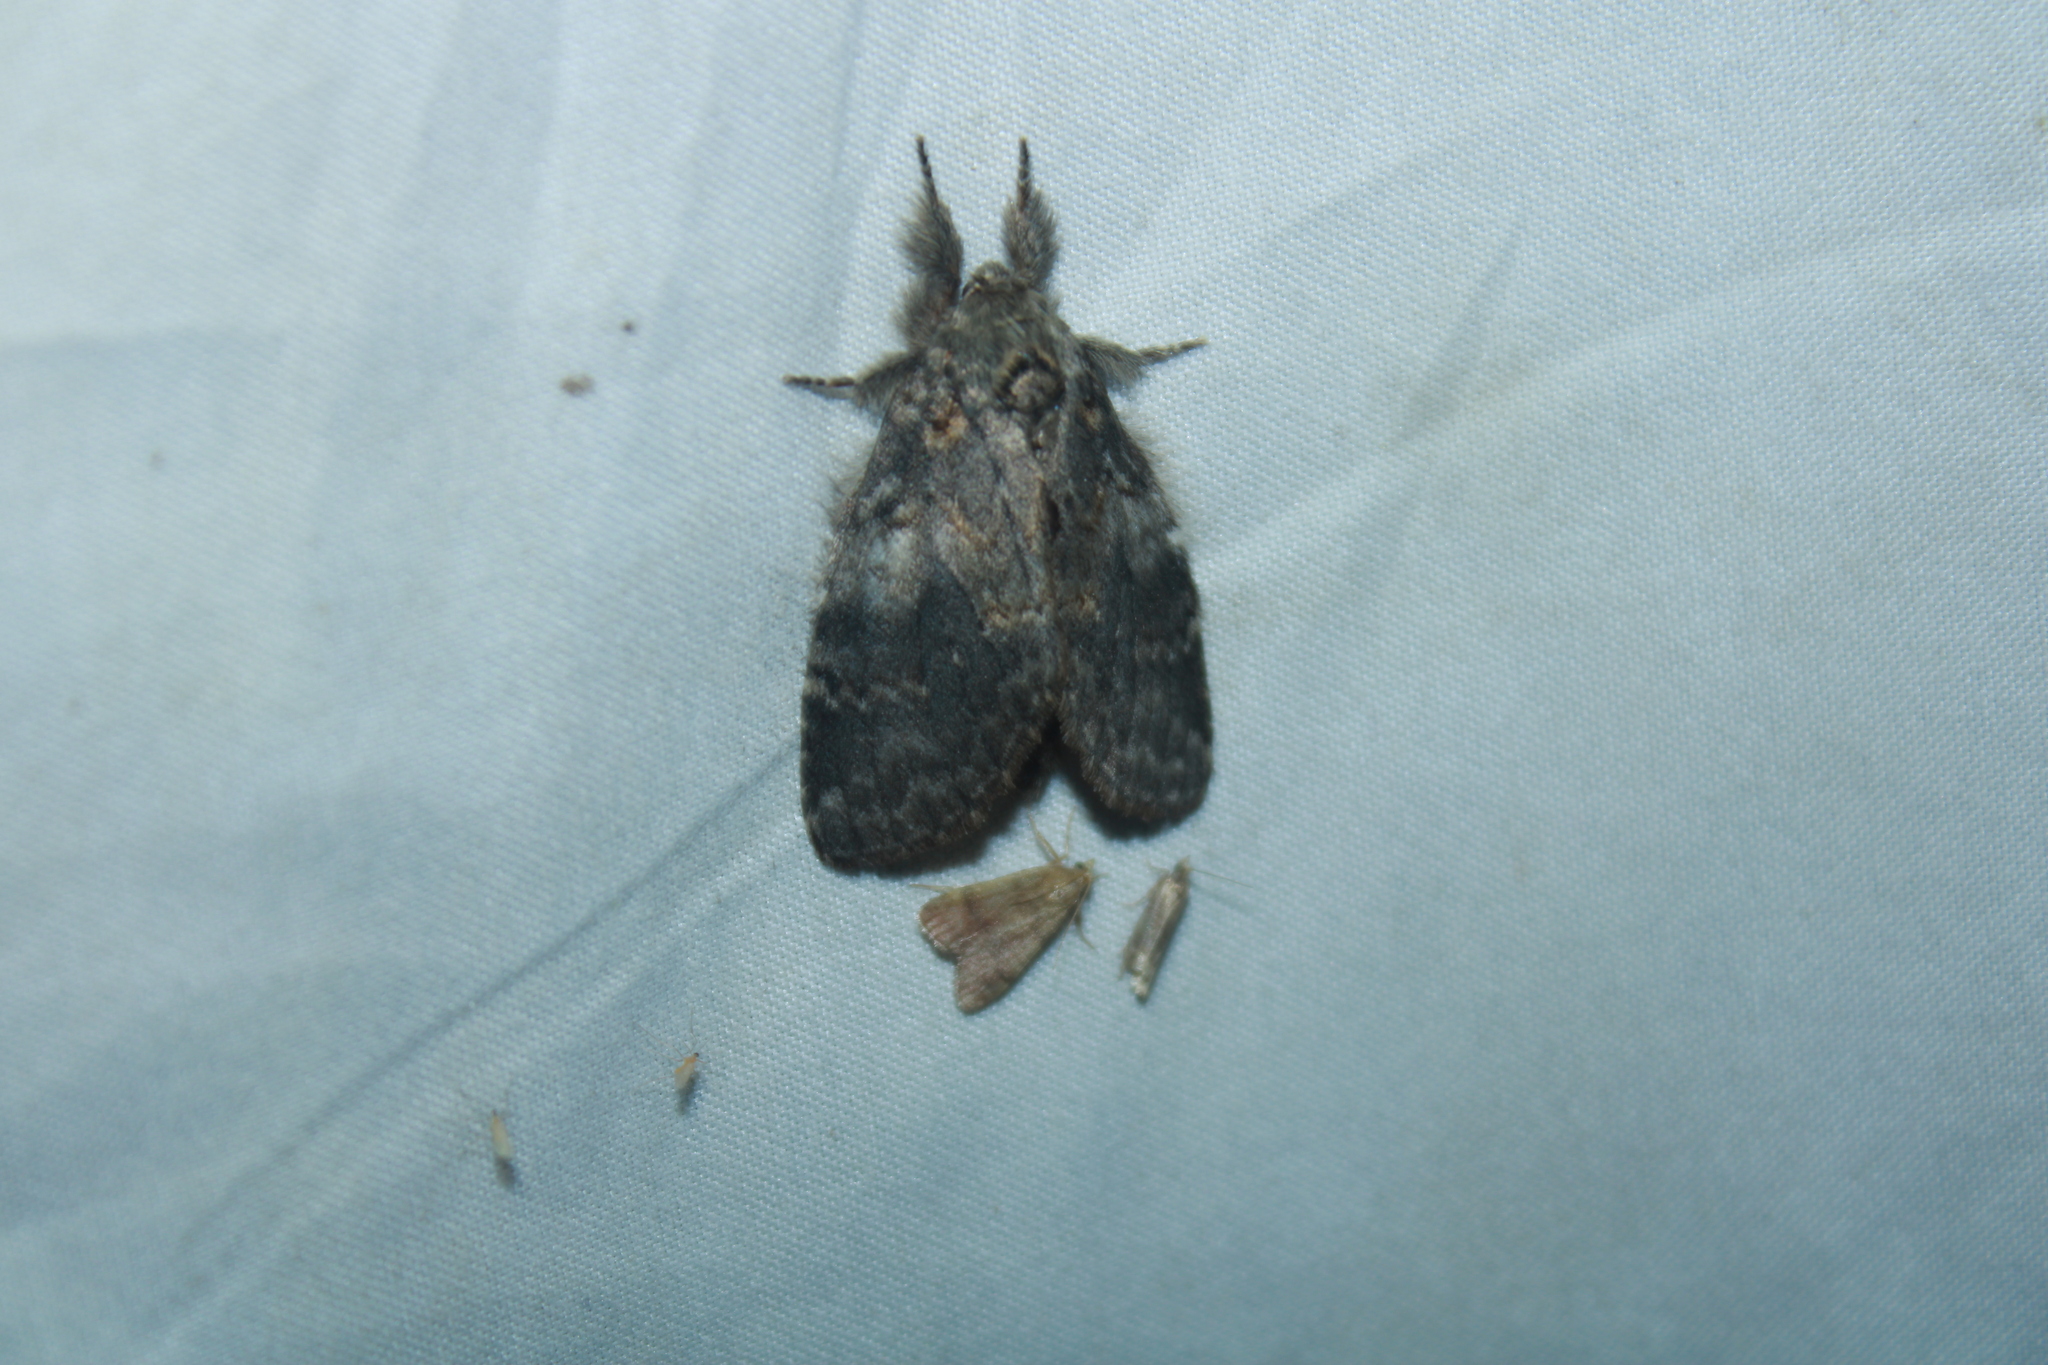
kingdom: Animalia
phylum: Arthropoda
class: Insecta
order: Lepidoptera
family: Notodontidae
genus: Peridea
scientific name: Peridea angulosa
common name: Angulose prominent
